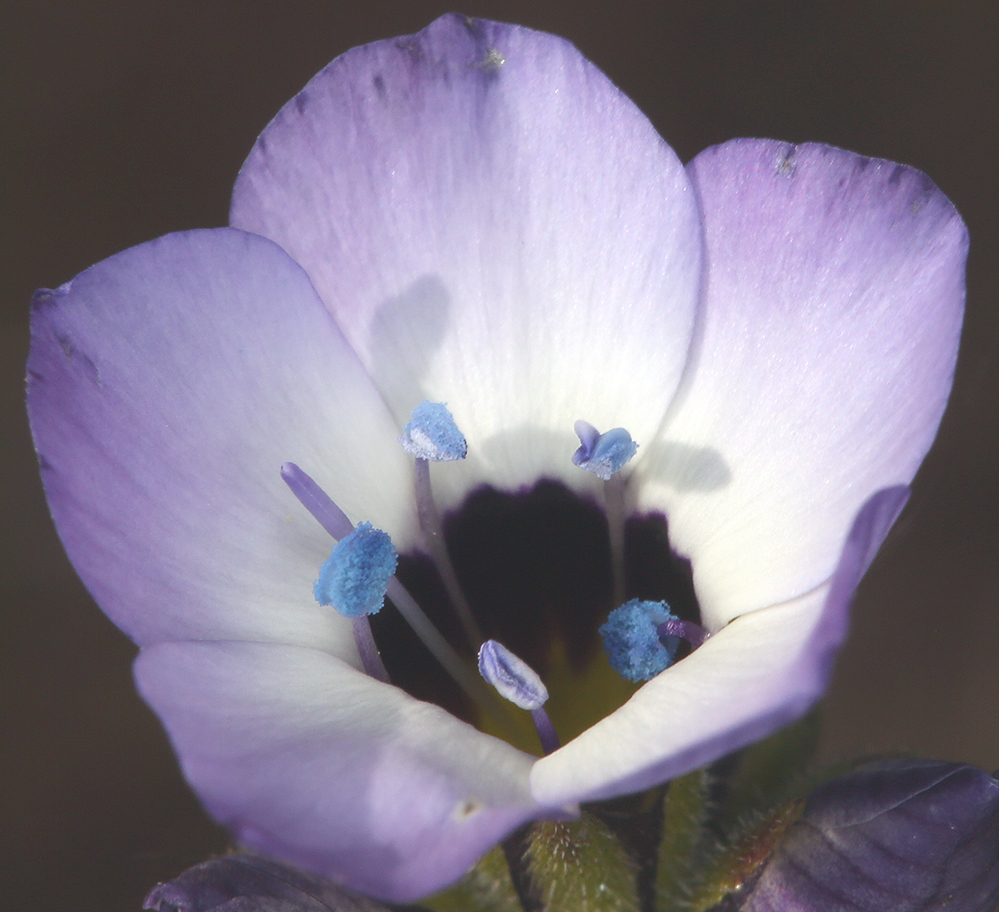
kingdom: Plantae
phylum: Tracheophyta
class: Magnoliopsida
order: Ericales
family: Polemoniaceae
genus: Gilia
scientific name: Gilia tricolor
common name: Bird's-eyes
